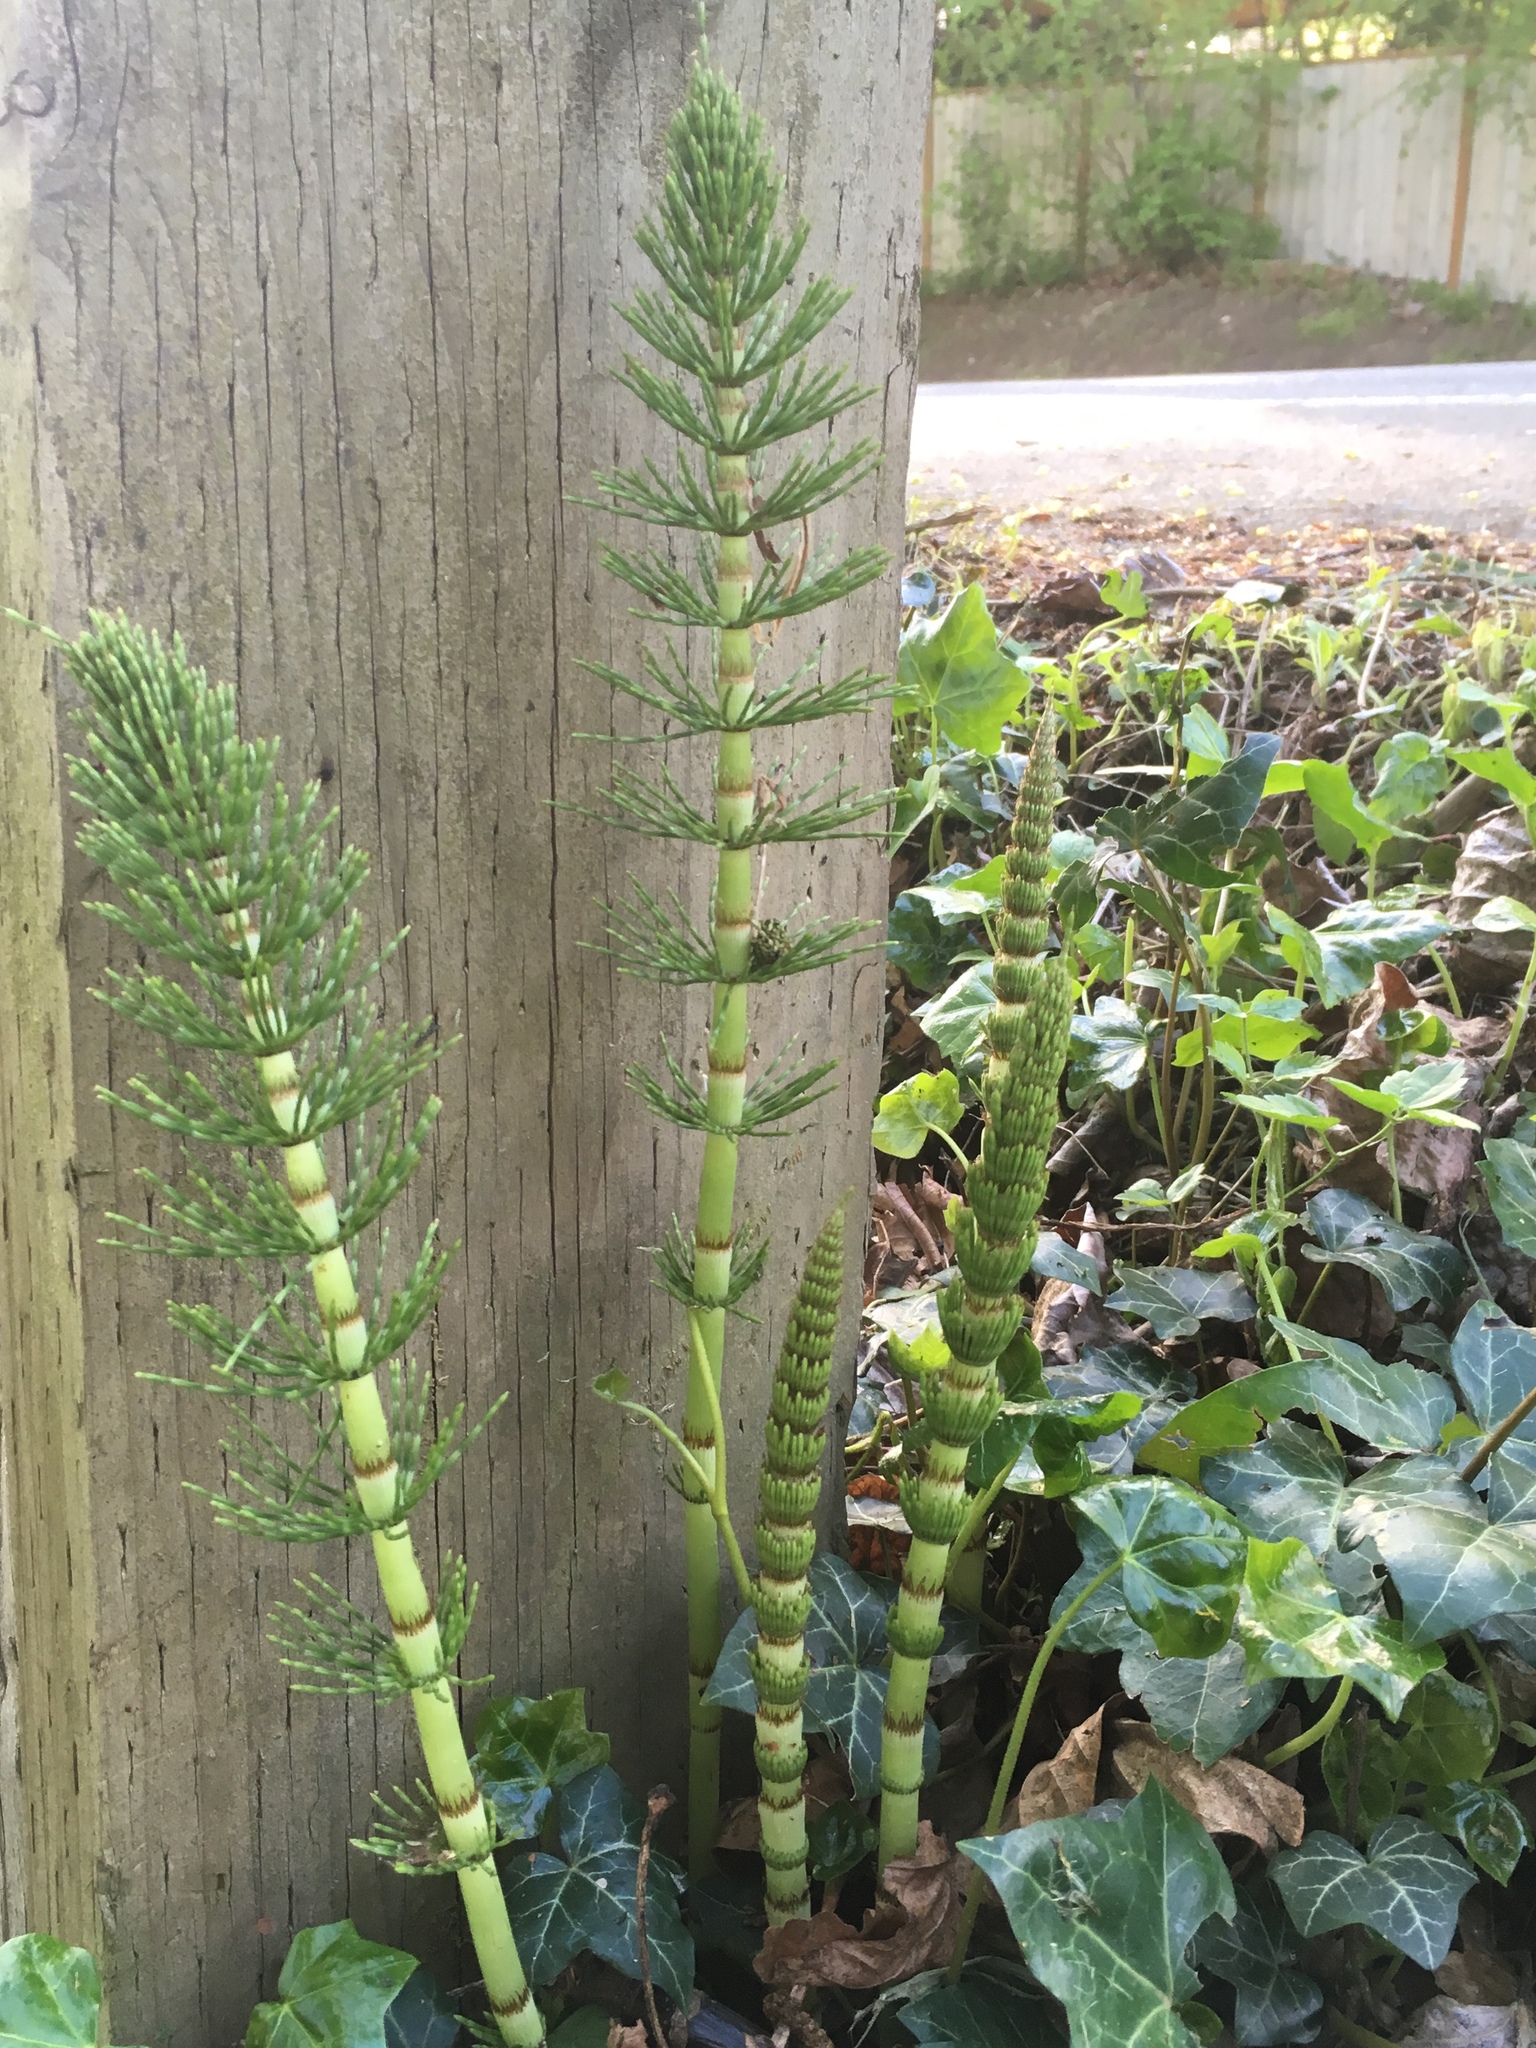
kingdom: Plantae
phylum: Tracheophyta
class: Polypodiopsida
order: Equisetales
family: Equisetaceae
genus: Equisetum
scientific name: Equisetum braunii
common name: Braun's horsetail
